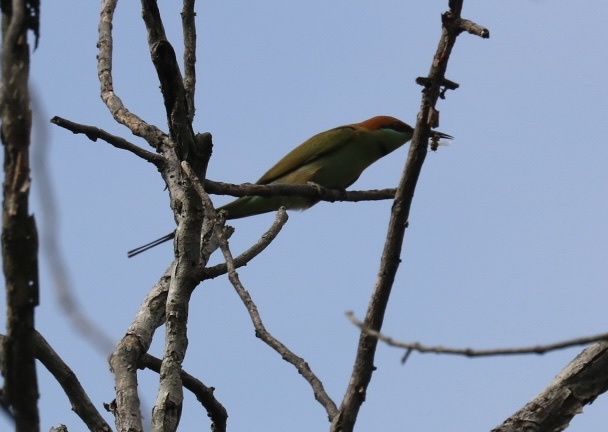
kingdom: Animalia
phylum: Chordata
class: Aves
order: Coraciiformes
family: Meropidae
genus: Merops
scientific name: Merops orientalis
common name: Green bee-eater
